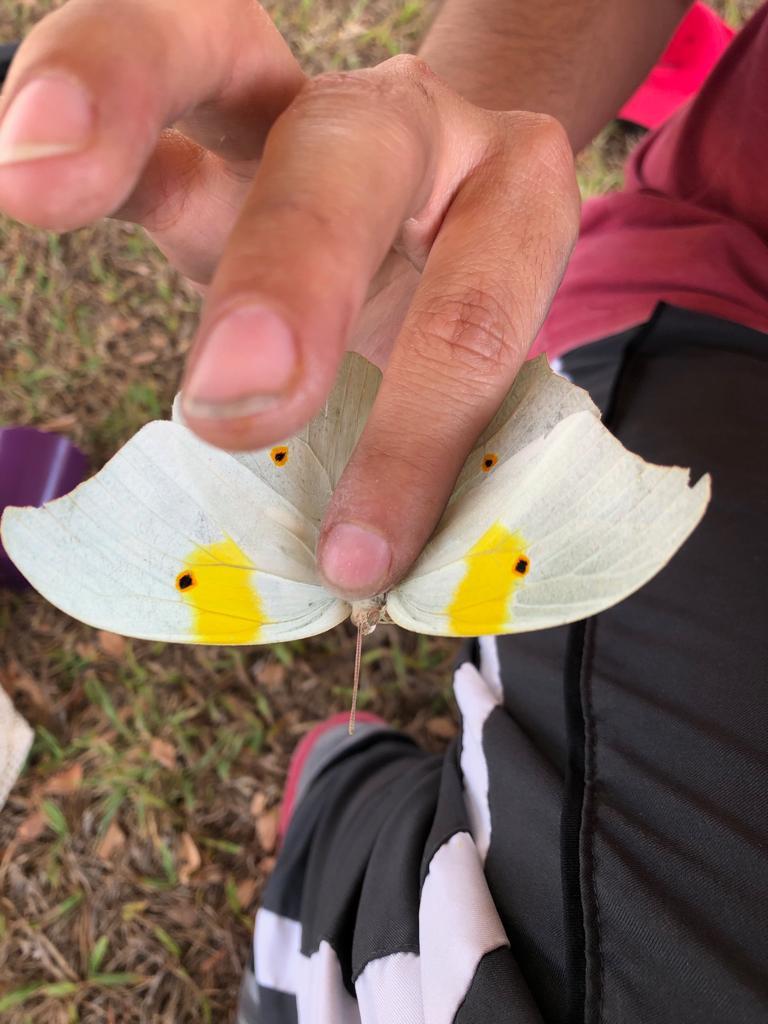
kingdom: Animalia
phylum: Arthropoda
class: Insecta
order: Lepidoptera
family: Pieridae
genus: Anteos
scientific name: Anteos clorinde
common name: White angled sulphur
